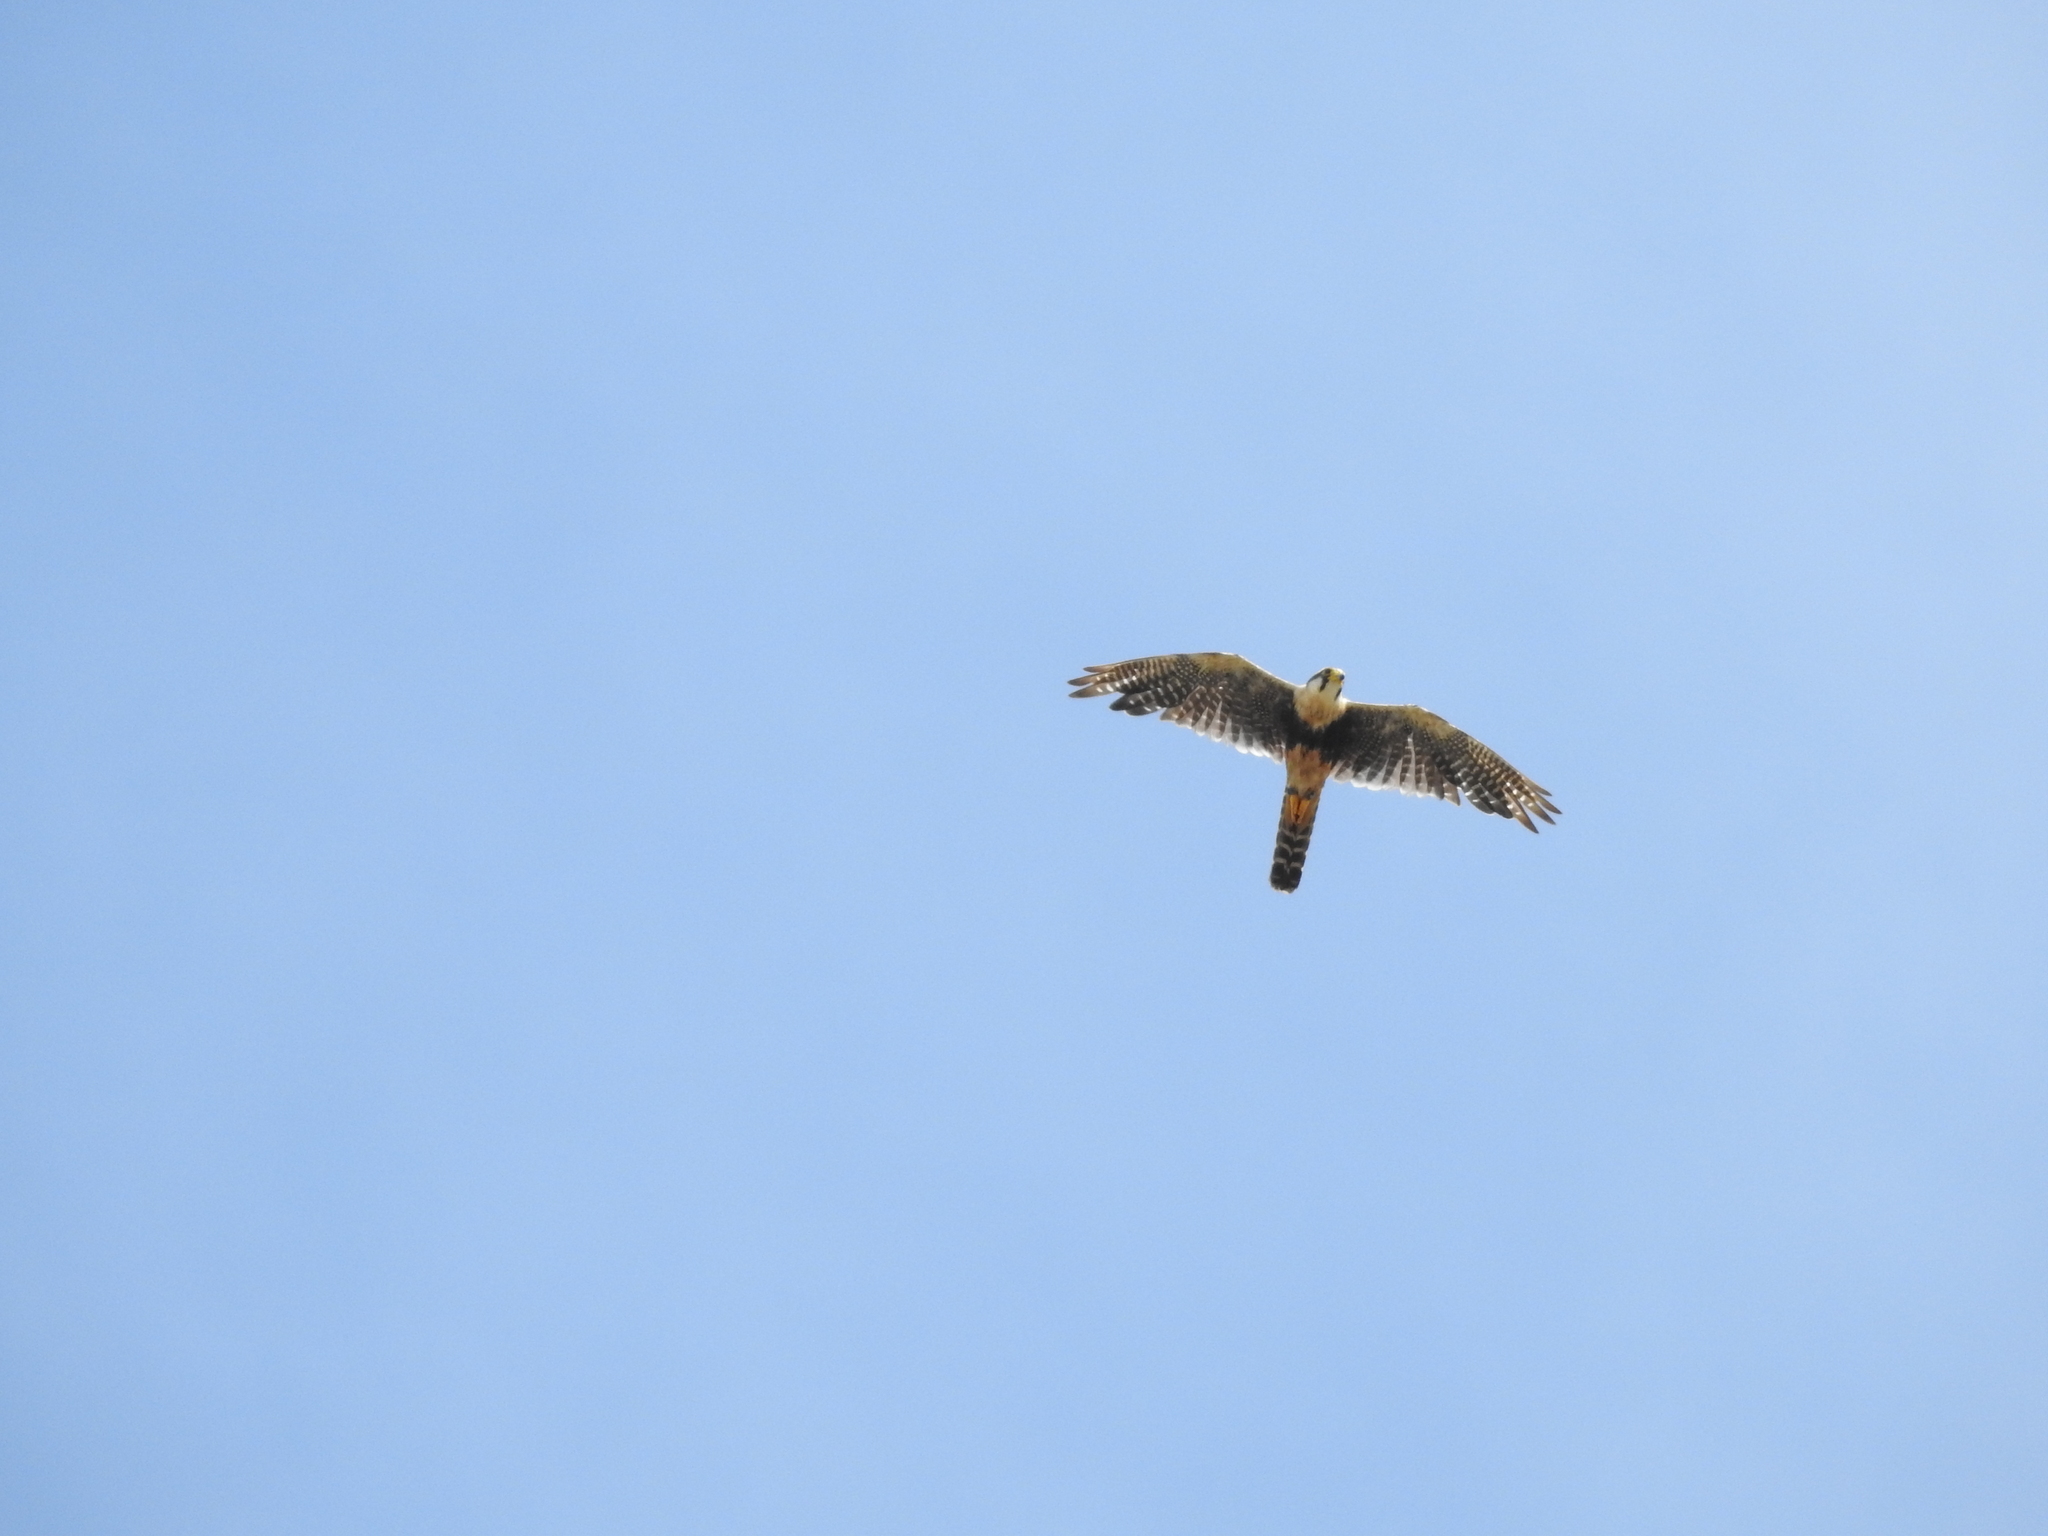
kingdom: Animalia
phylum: Chordata
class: Aves
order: Falconiformes
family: Falconidae
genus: Falco
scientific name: Falco femoralis
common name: Aplomado falcon
